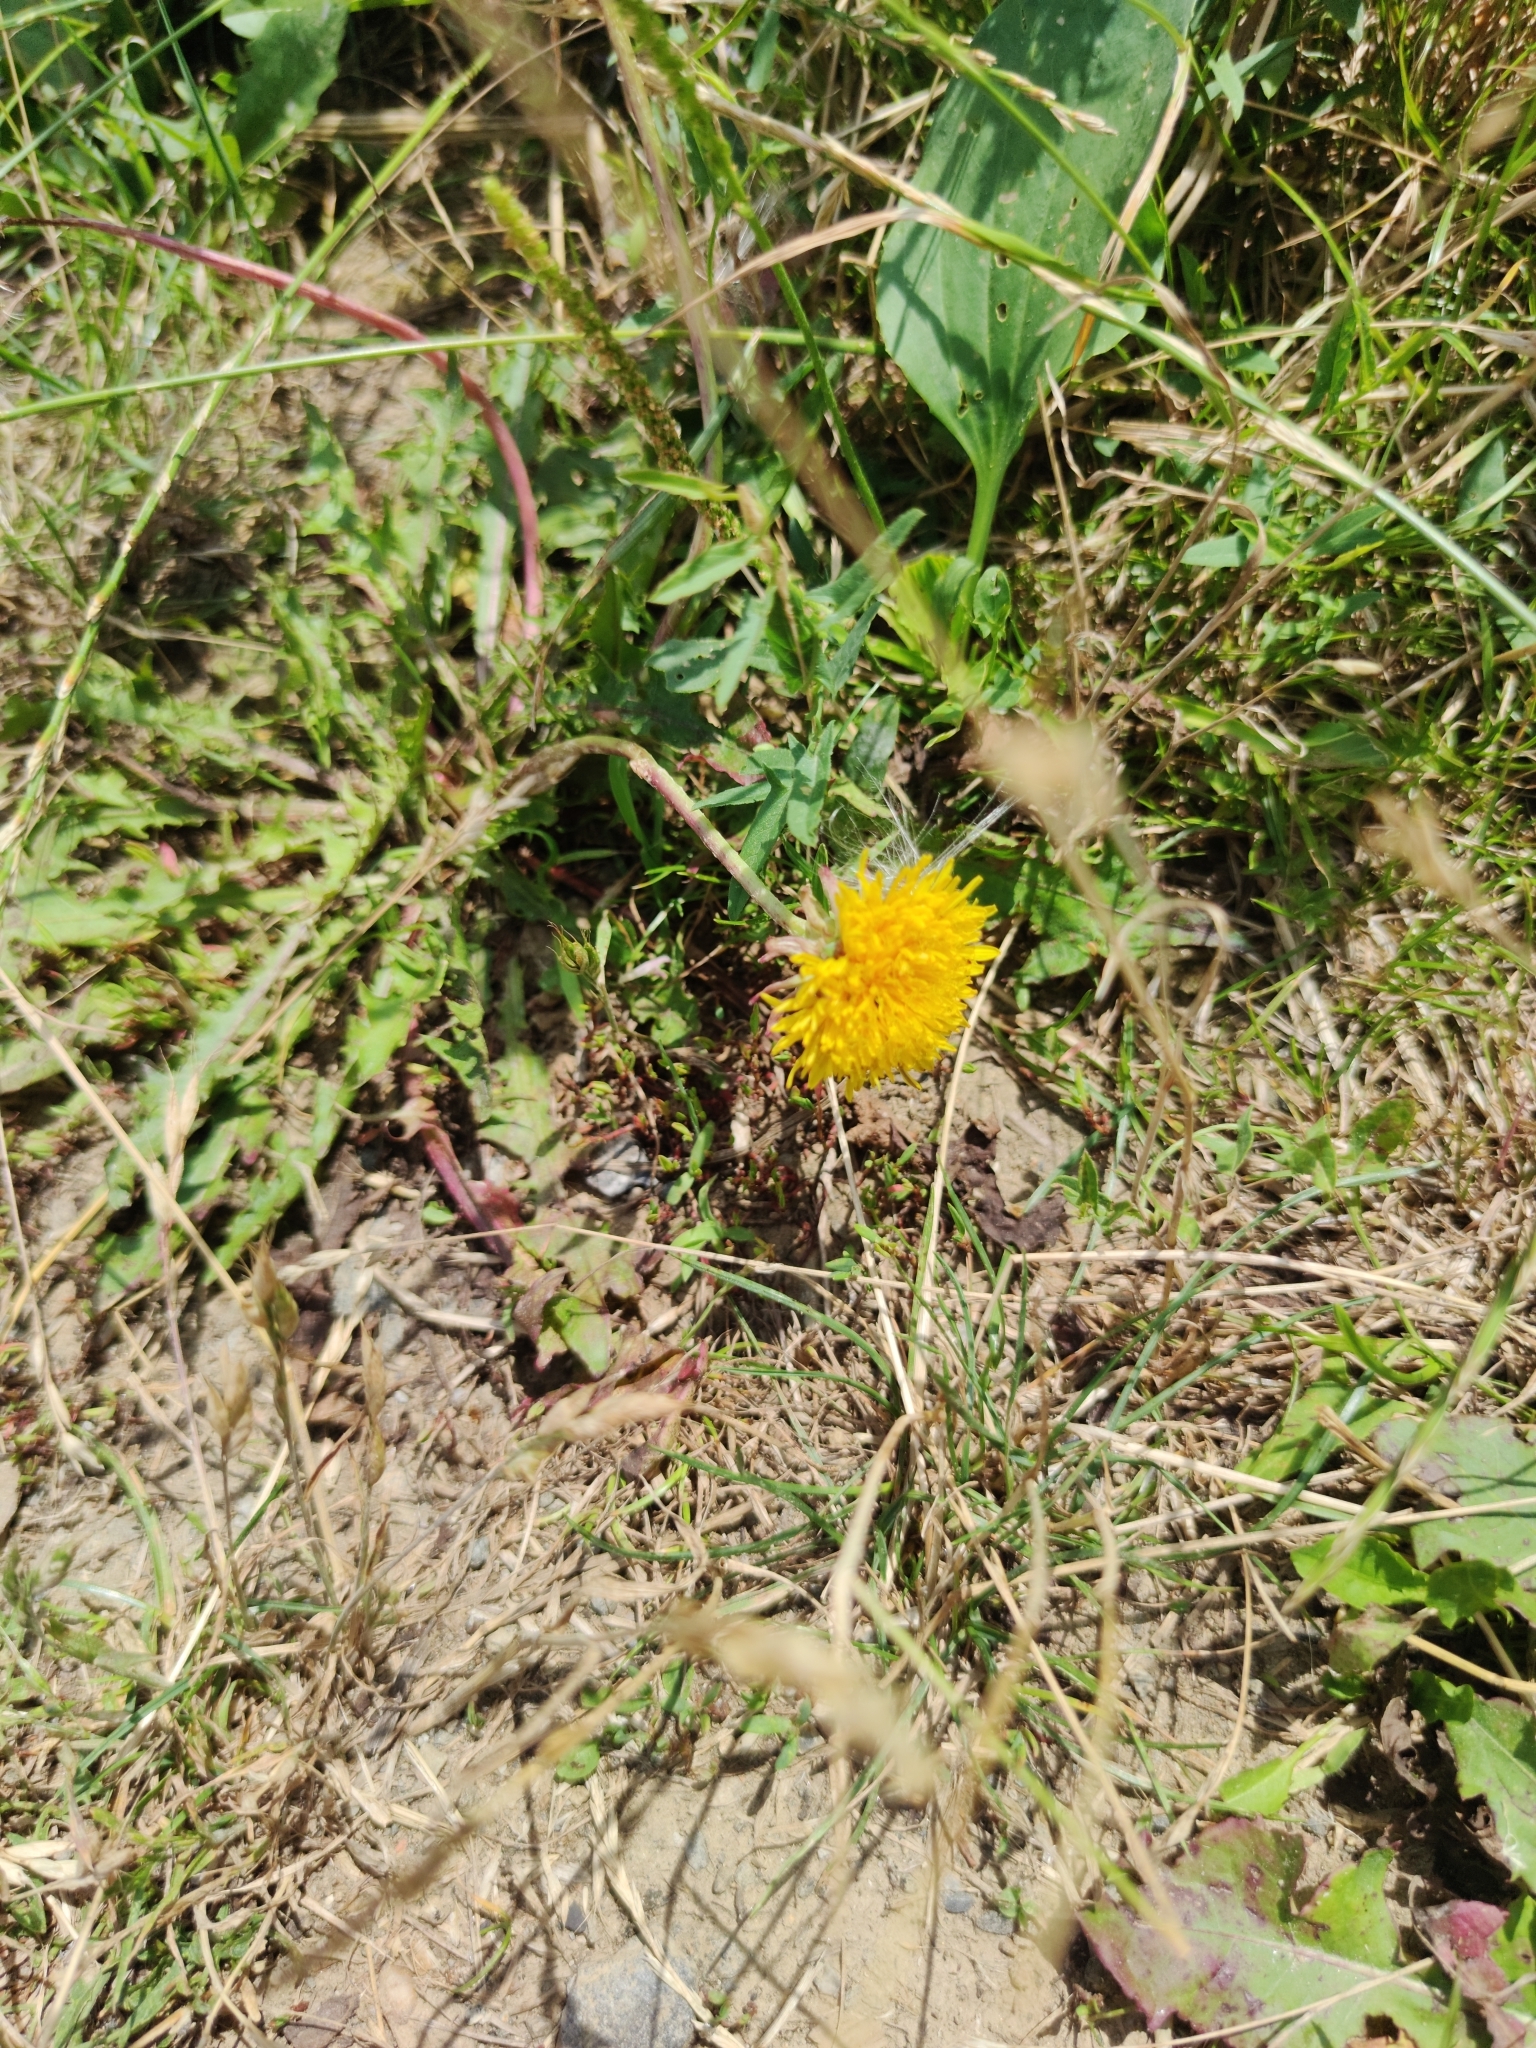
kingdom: Plantae
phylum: Tracheophyta
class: Magnoliopsida
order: Asterales
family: Asteraceae
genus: Taraxacum
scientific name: Taraxacum officinale
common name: Common dandelion
